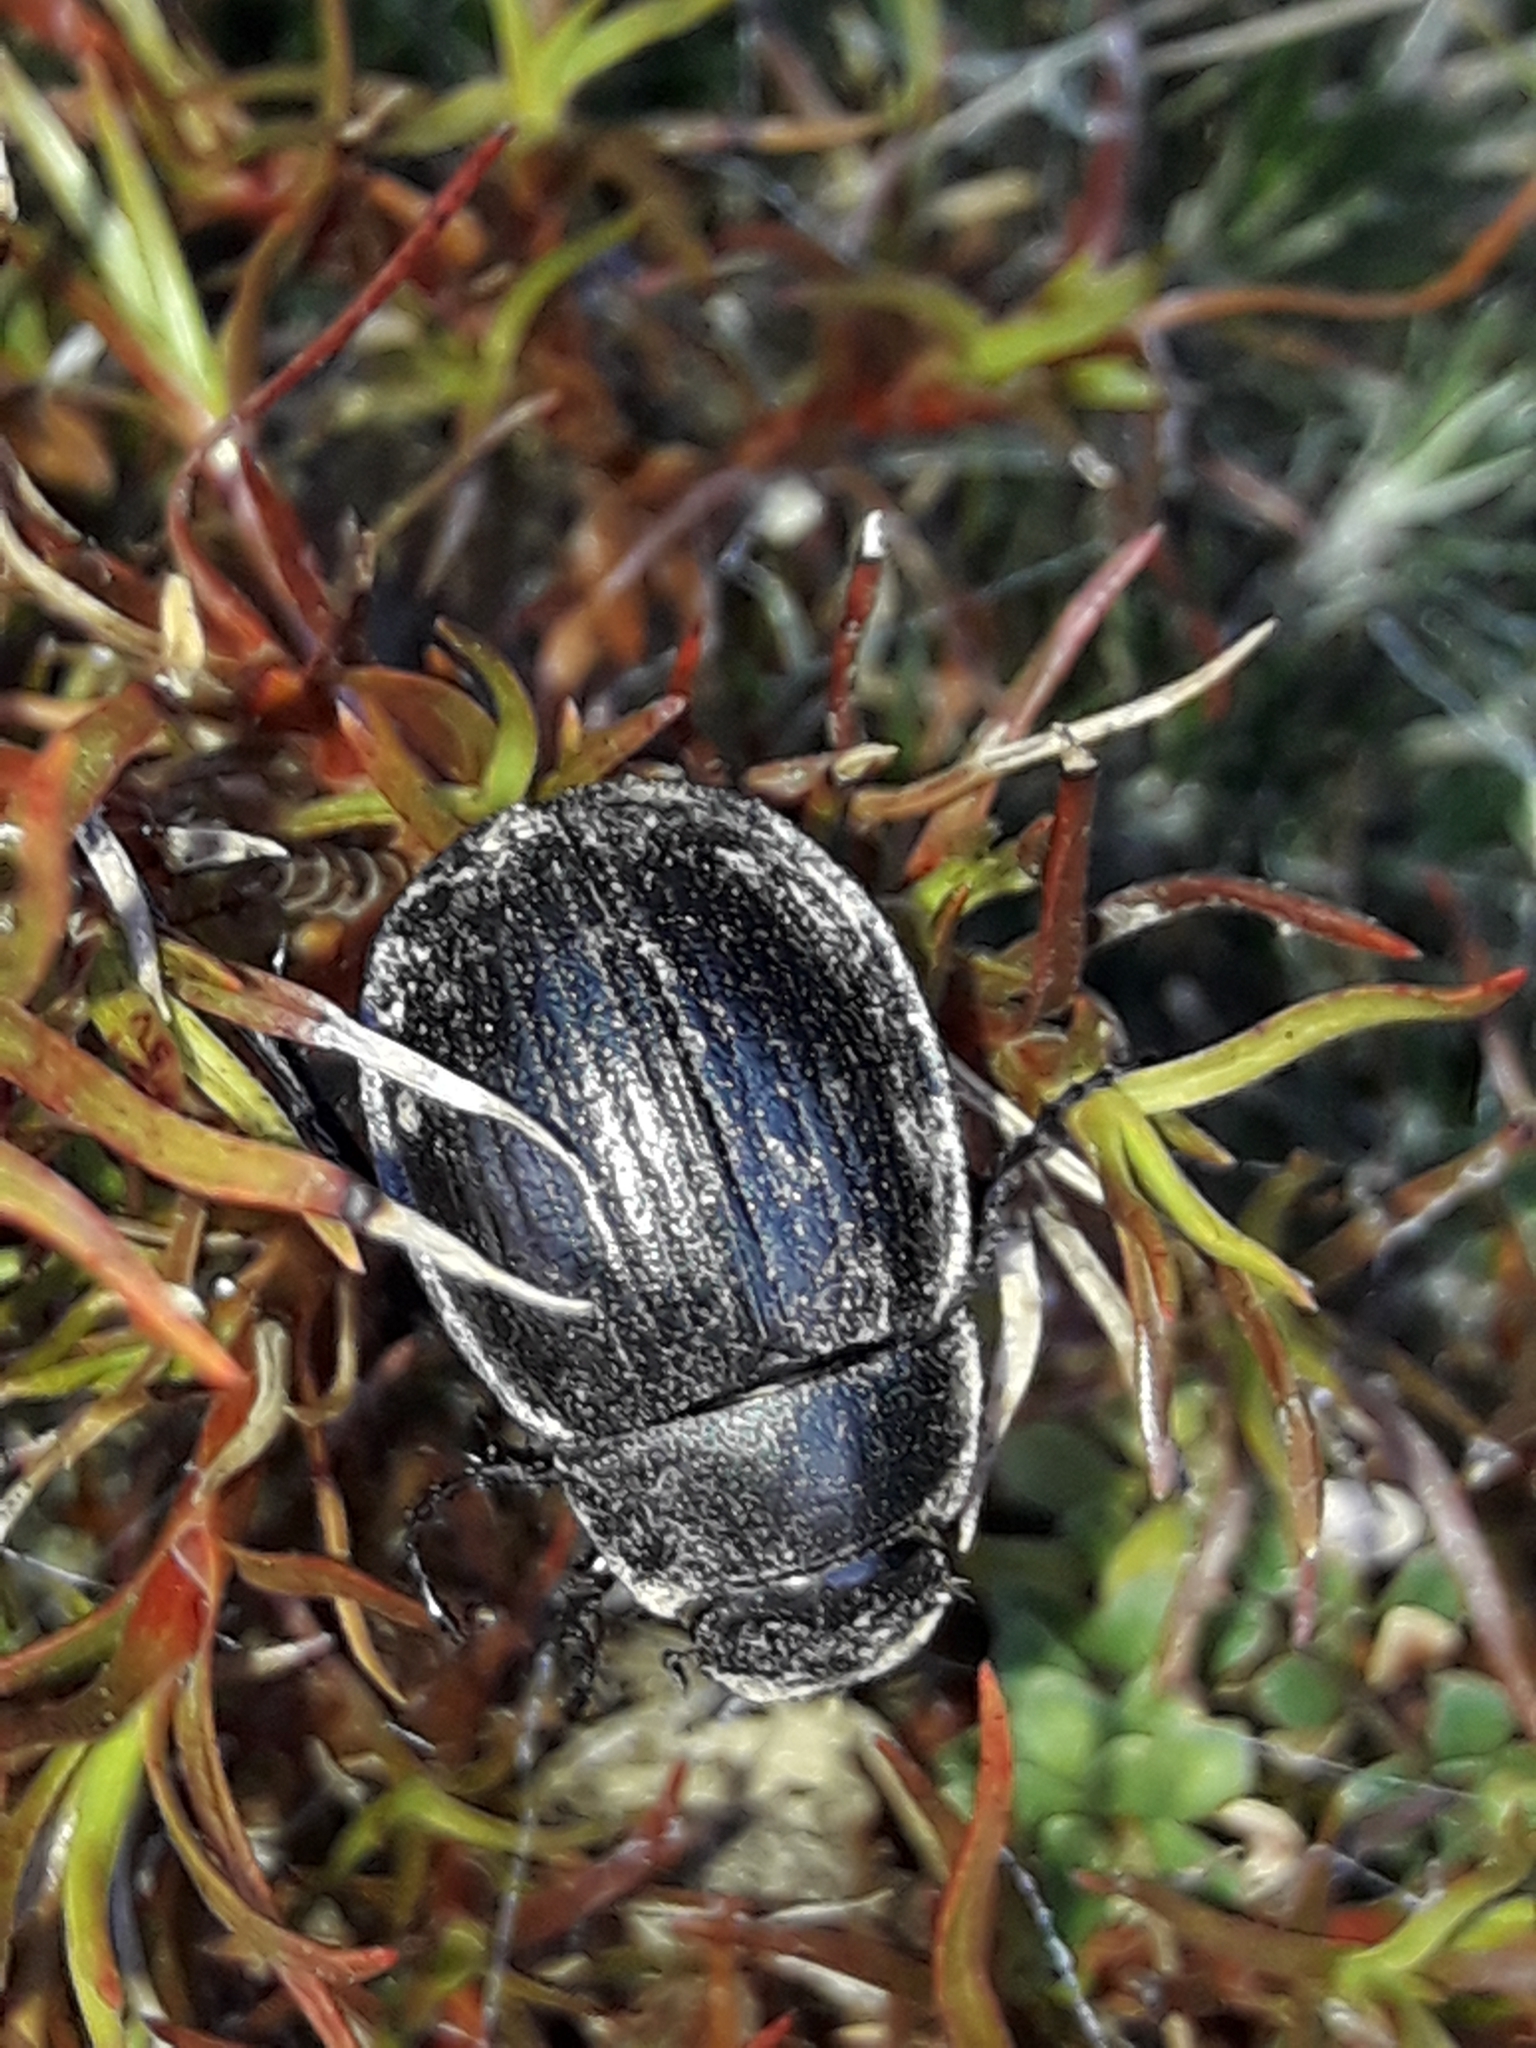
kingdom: Animalia
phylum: Arthropoda
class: Insecta
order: Coleoptera
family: Scarabaeidae
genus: Scythrodes
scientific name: Scythrodes squalidus
